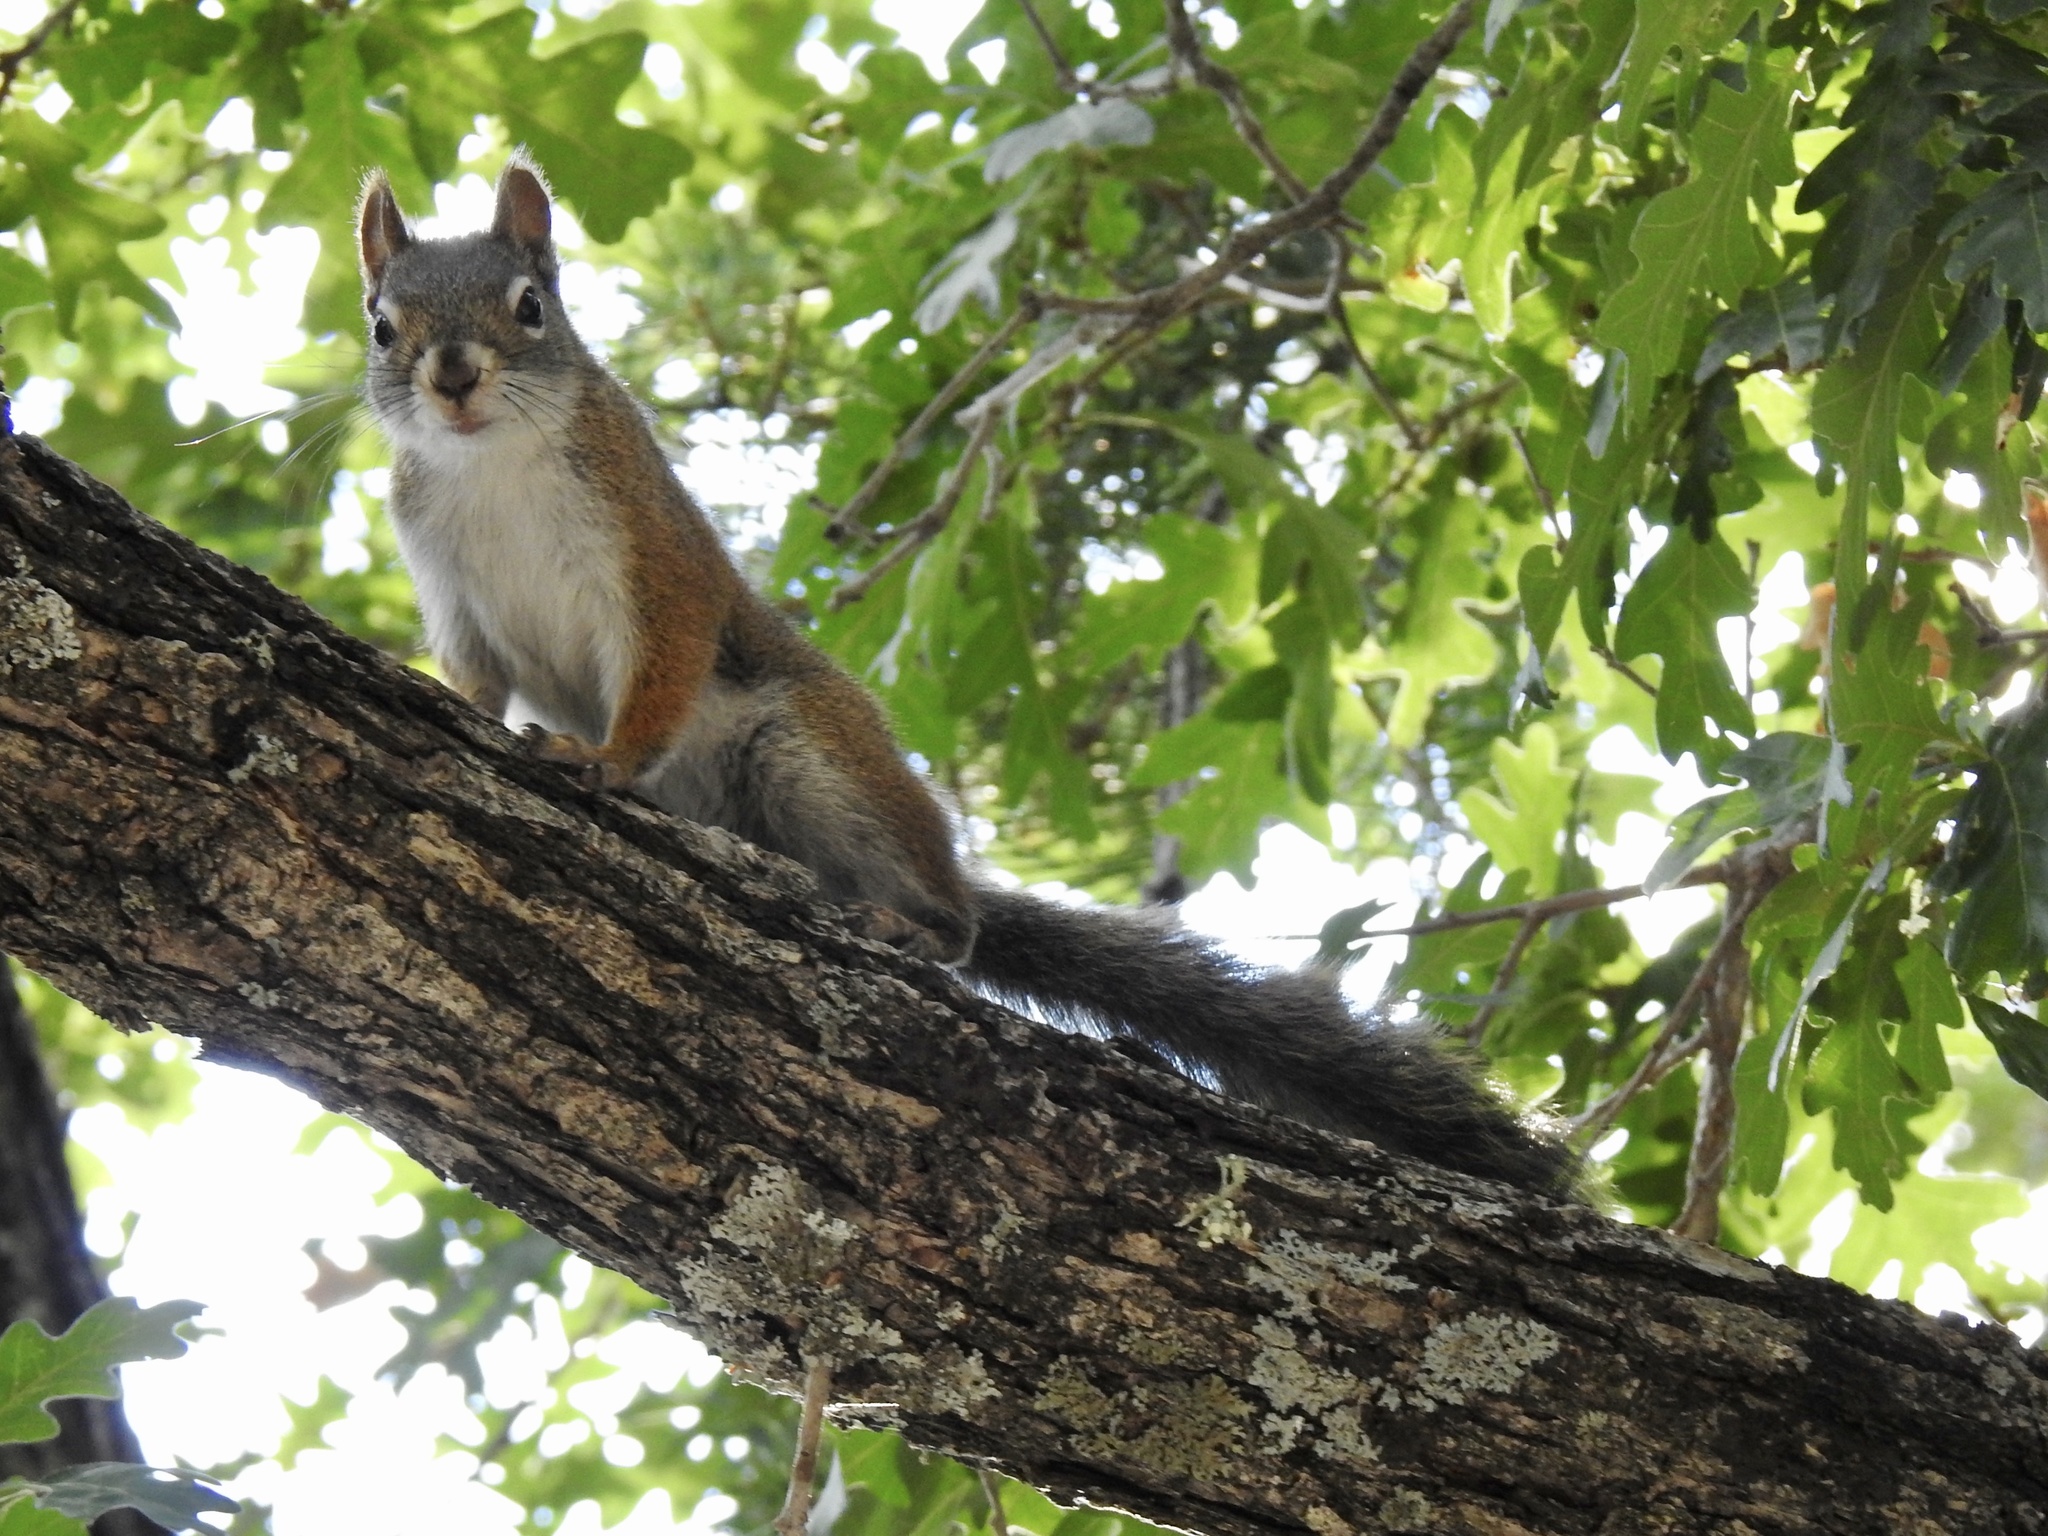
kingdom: Animalia
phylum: Chordata
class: Mammalia
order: Rodentia
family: Sciuridae
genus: Tamiasciurus
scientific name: Tamiasciurus hudsonicus
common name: Red squirrel
